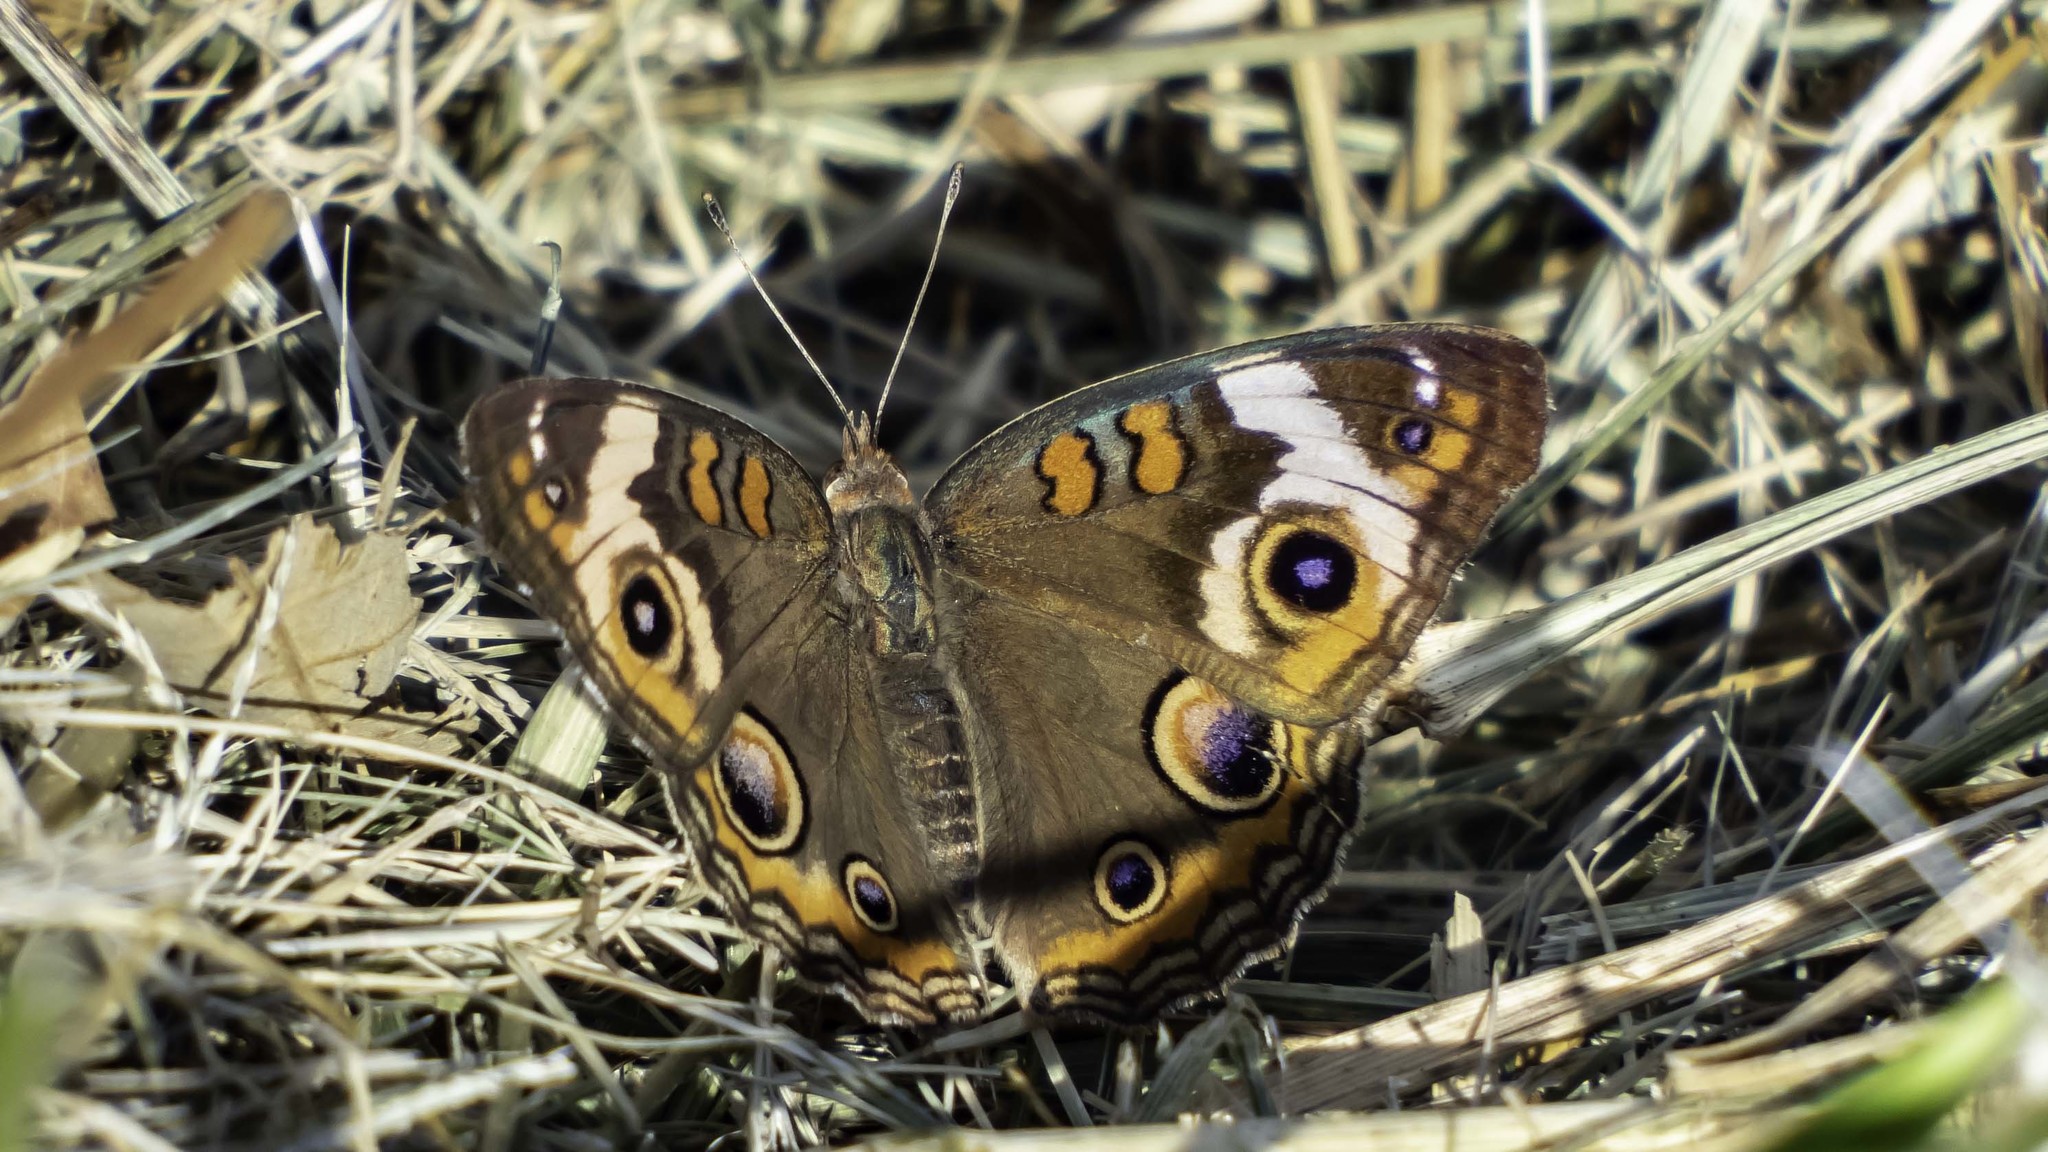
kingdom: Animalia
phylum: Arthropoda
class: Insecta
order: Lepidoptera
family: Nymphalidae
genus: Junonia
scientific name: Junonia coenia
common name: Common buckeye
